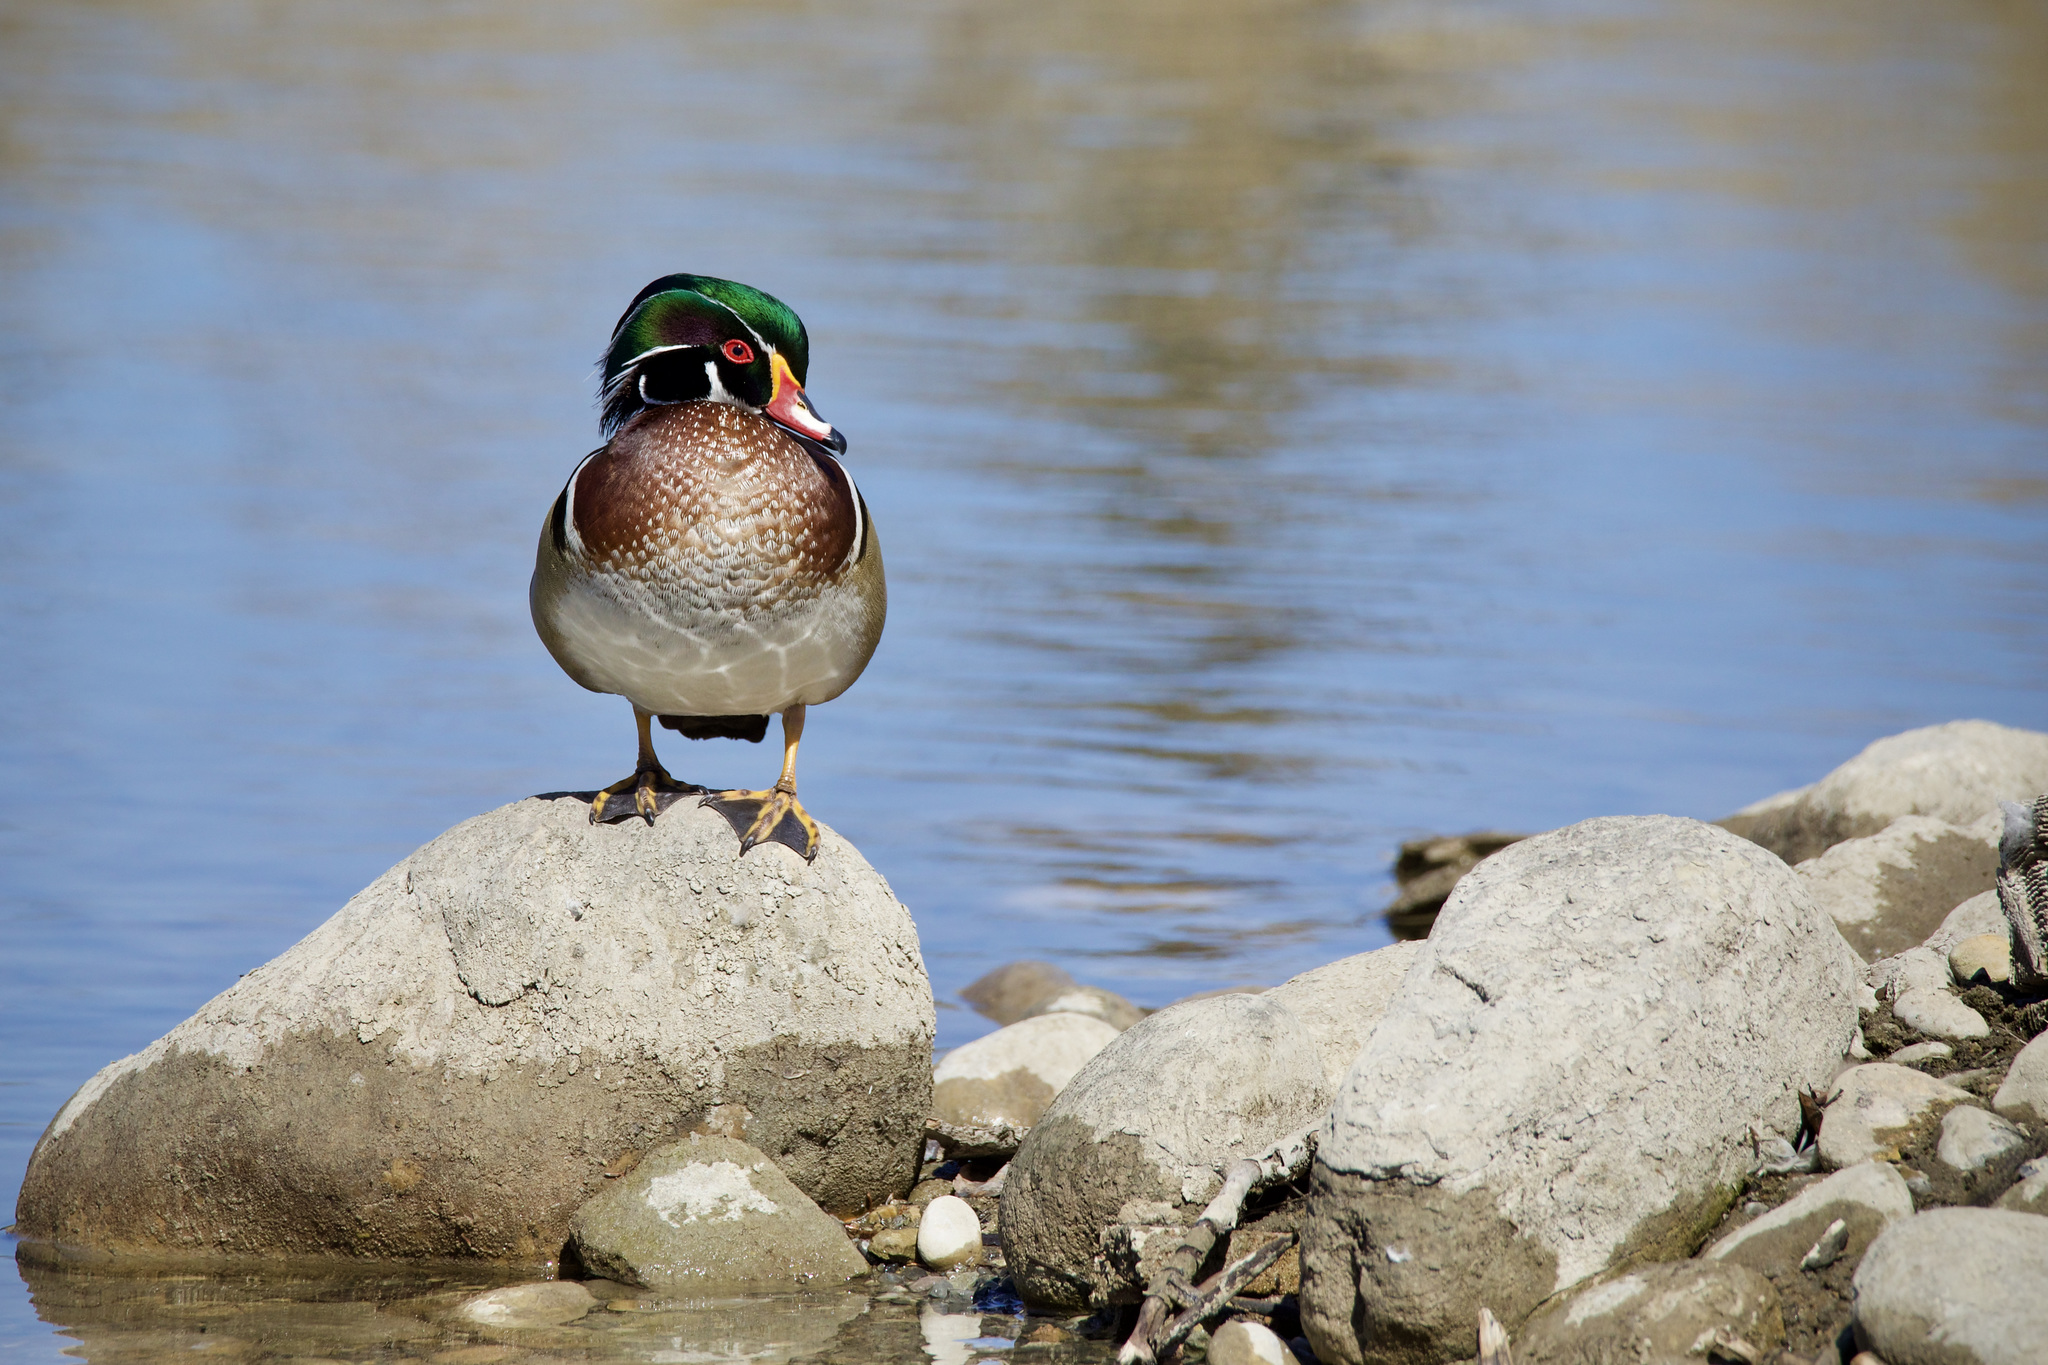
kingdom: Animalia
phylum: Chordata
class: Aves
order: Anseriformes
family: Anatidae
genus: Aix
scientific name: Aix sponsa
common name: Wood duck
